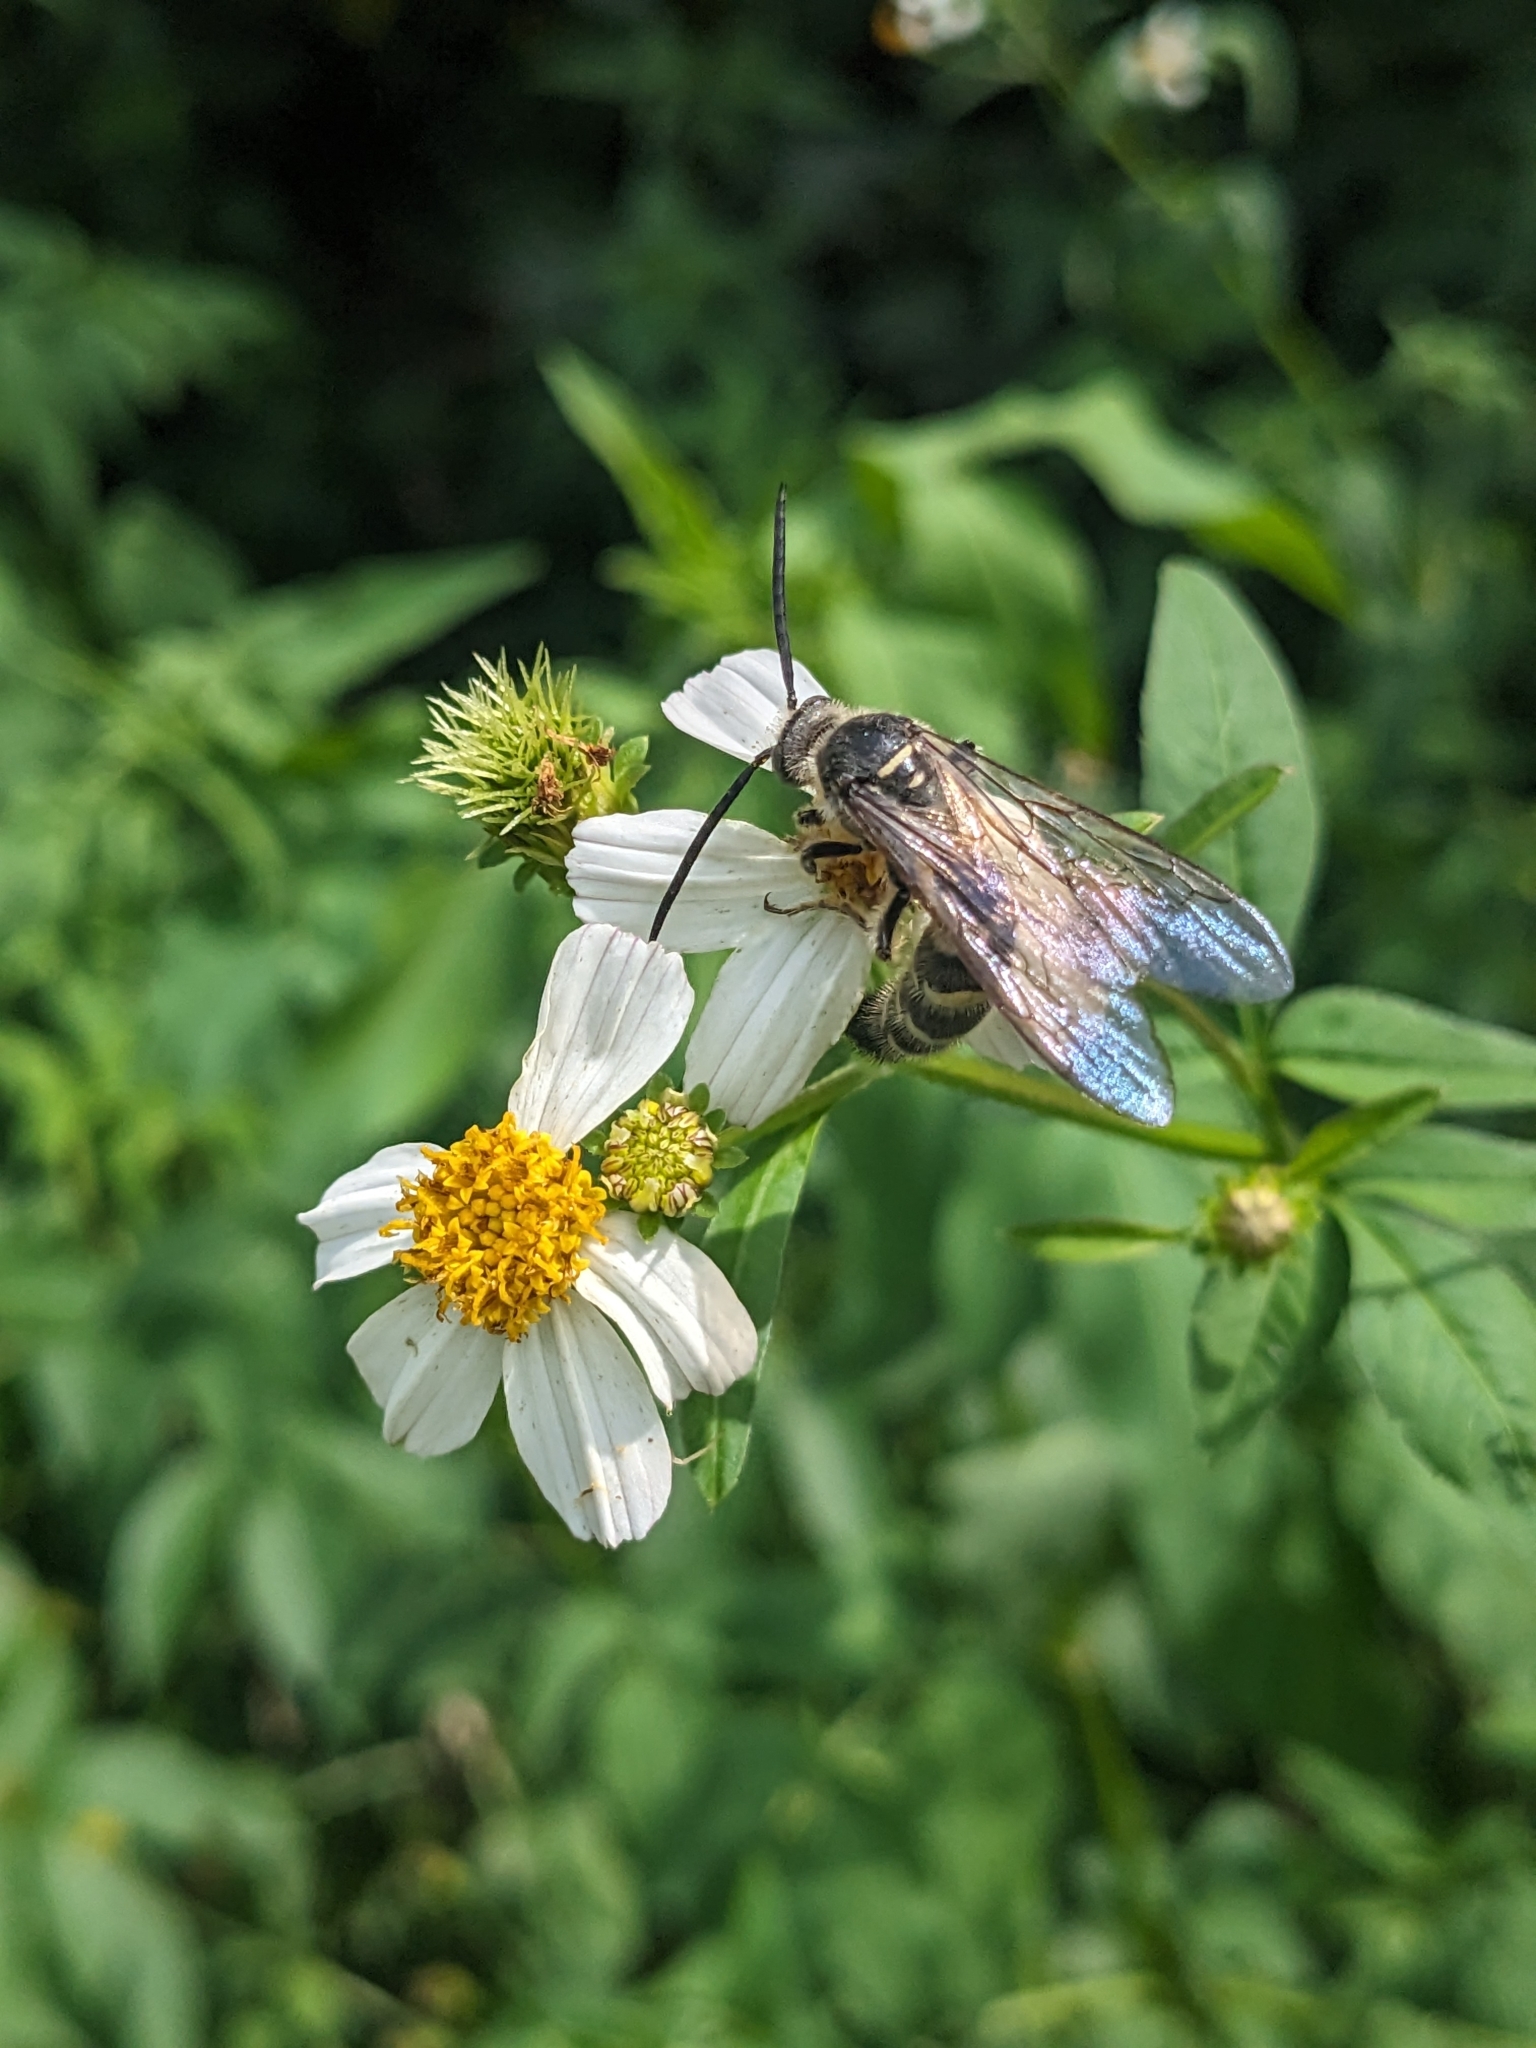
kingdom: Animalia
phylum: Arthropoda
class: Insecta
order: Hymenoptera
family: Scoliidae
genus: Dielis
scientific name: Dielis
